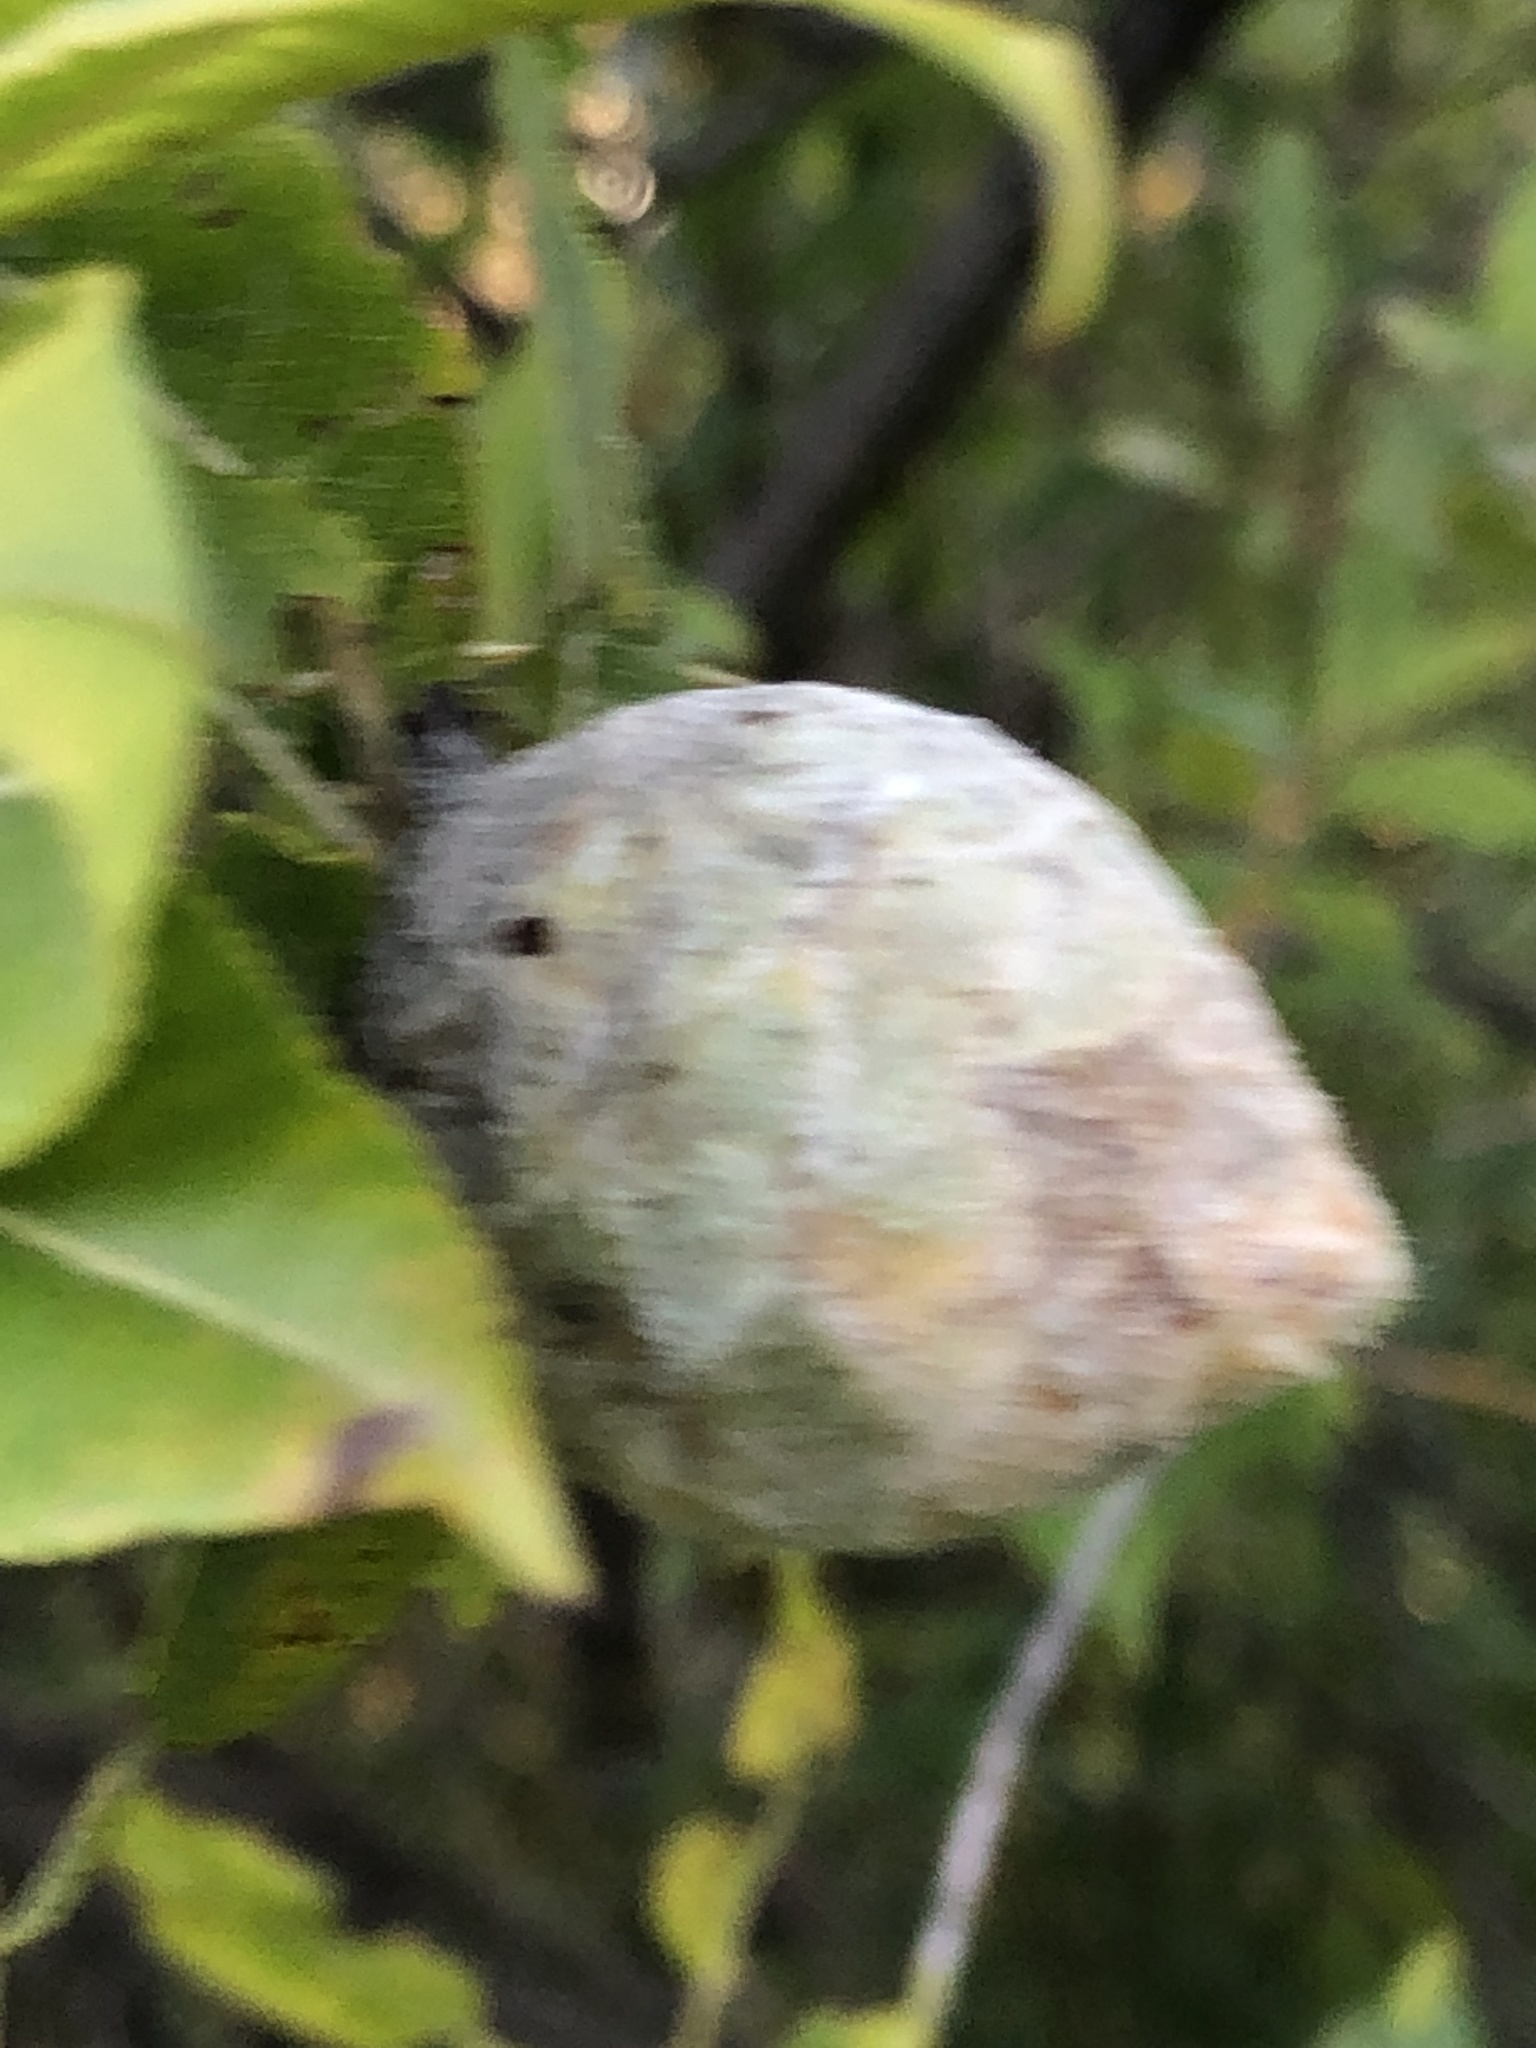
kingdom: Animalia
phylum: Arthropoda
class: Insecta
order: Diptera
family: Cecidomyiidae
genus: Rabdophaga
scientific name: Rabdophaga strobiloides
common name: Willow pinecone gall midge
